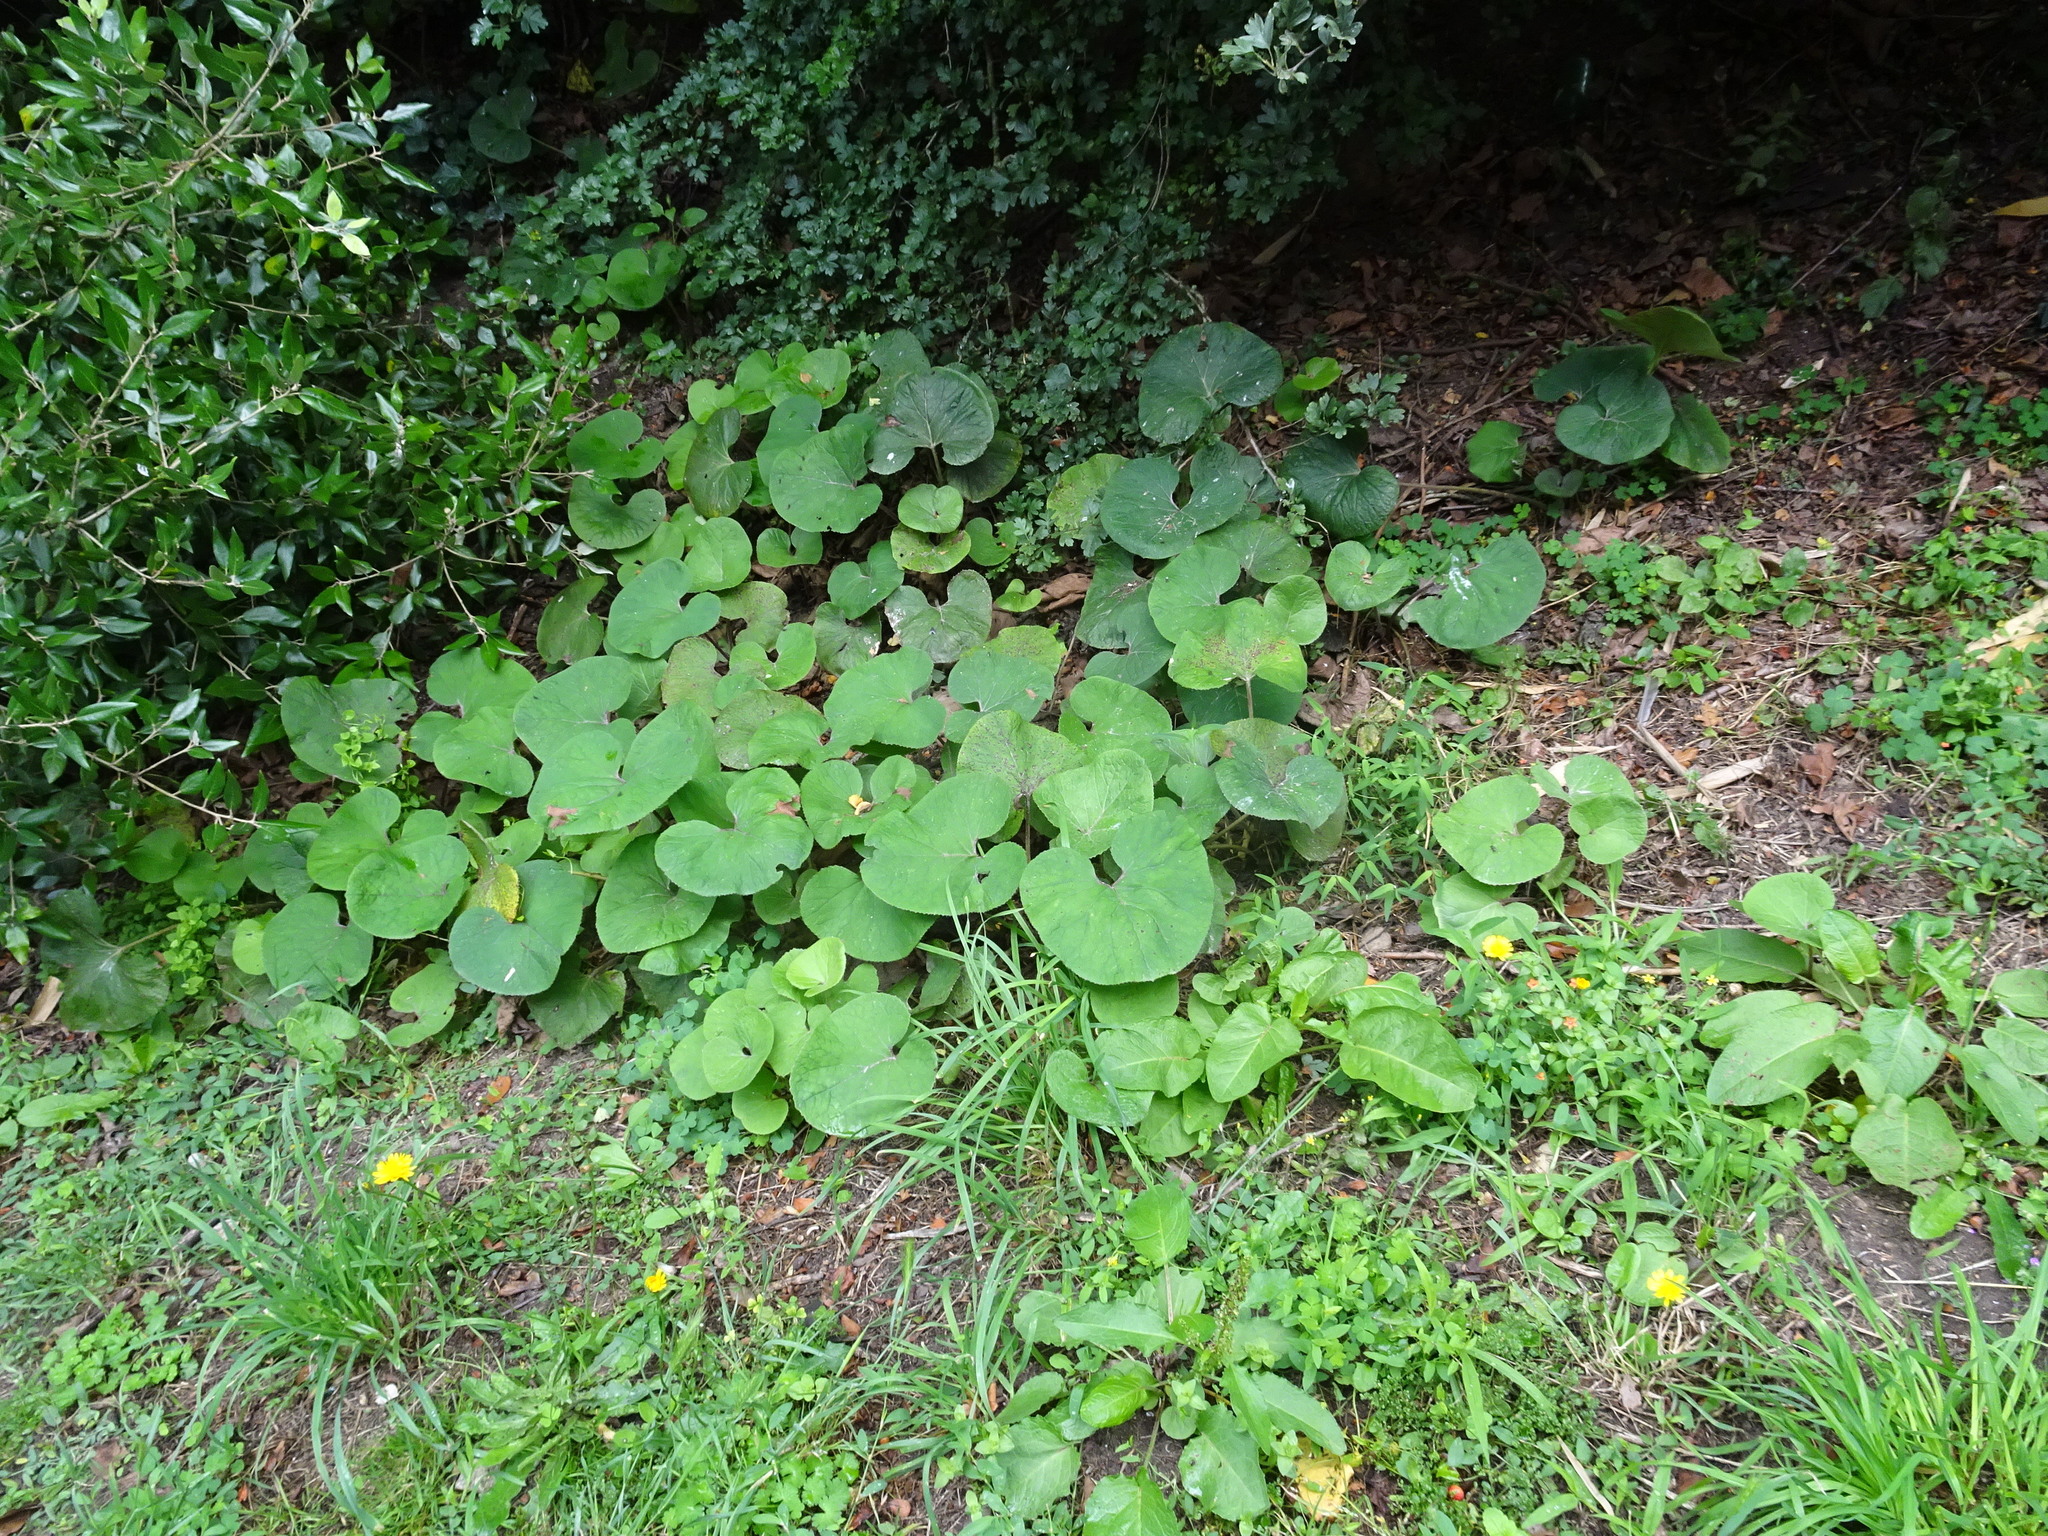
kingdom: Plantae
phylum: Tracheophyta
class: Magnoliopsida
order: Asterales
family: Asteraceae
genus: Petasites
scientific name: Petasites pyrenaicus
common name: Winter heliotrope
